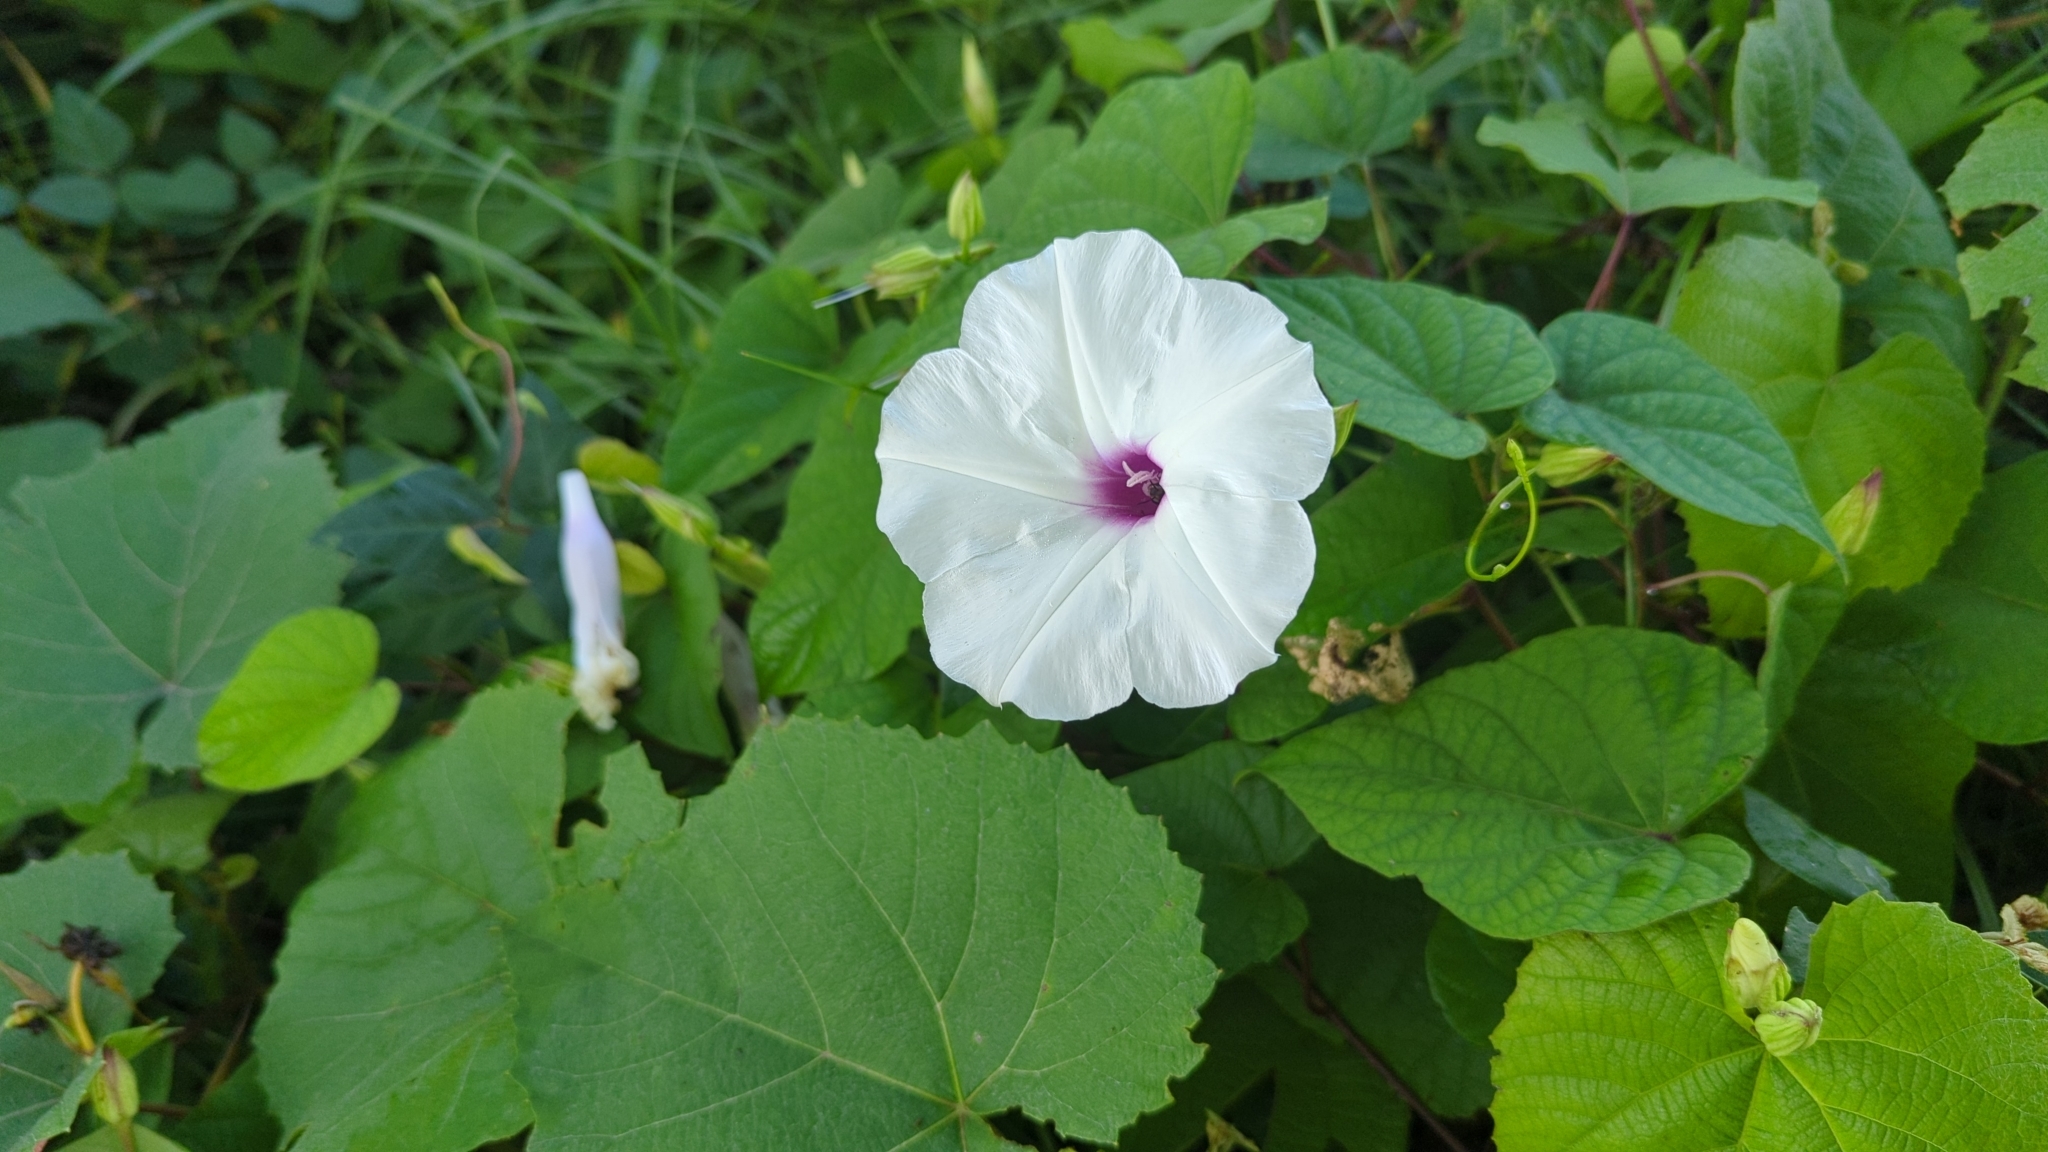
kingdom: Plantae
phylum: Tracheophyta
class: Magnoliopsida
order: Solanales
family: Convolvulaceae
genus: Ipomoea
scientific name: Ipomoea pandurata
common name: Man-of-the-earth
